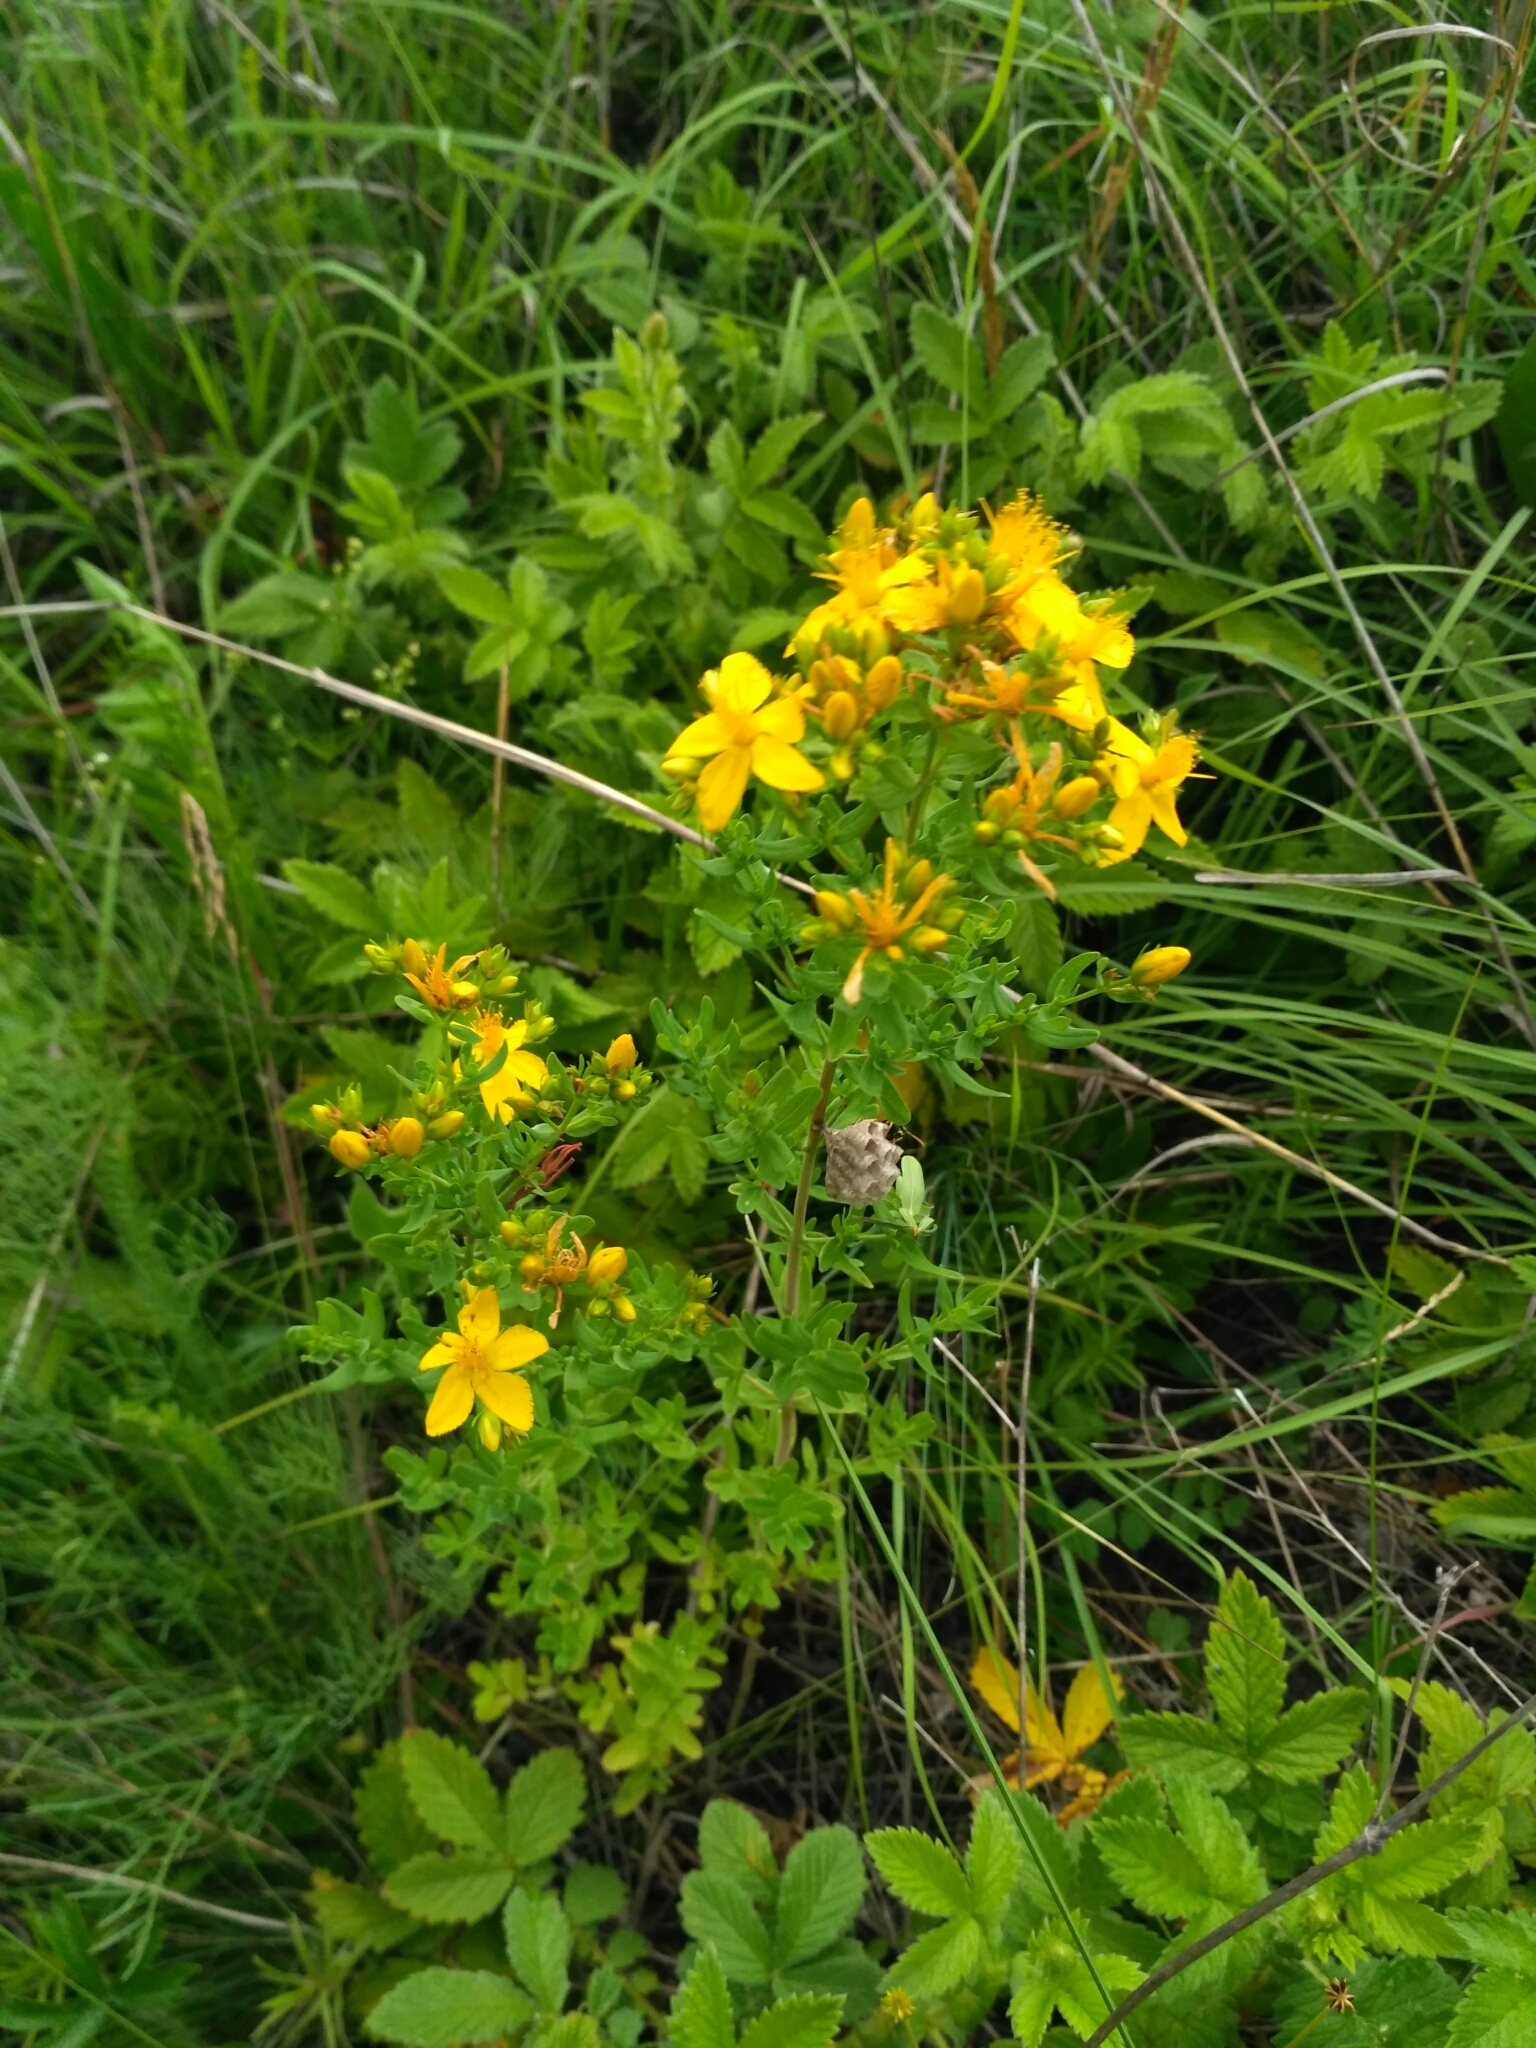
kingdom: Plantae
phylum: Tracheophyta
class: Magnoliopsida
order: Malpighiales
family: Hypericaceae
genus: Hypericum
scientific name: Hypericum perforatum
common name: Common st. johnswort
